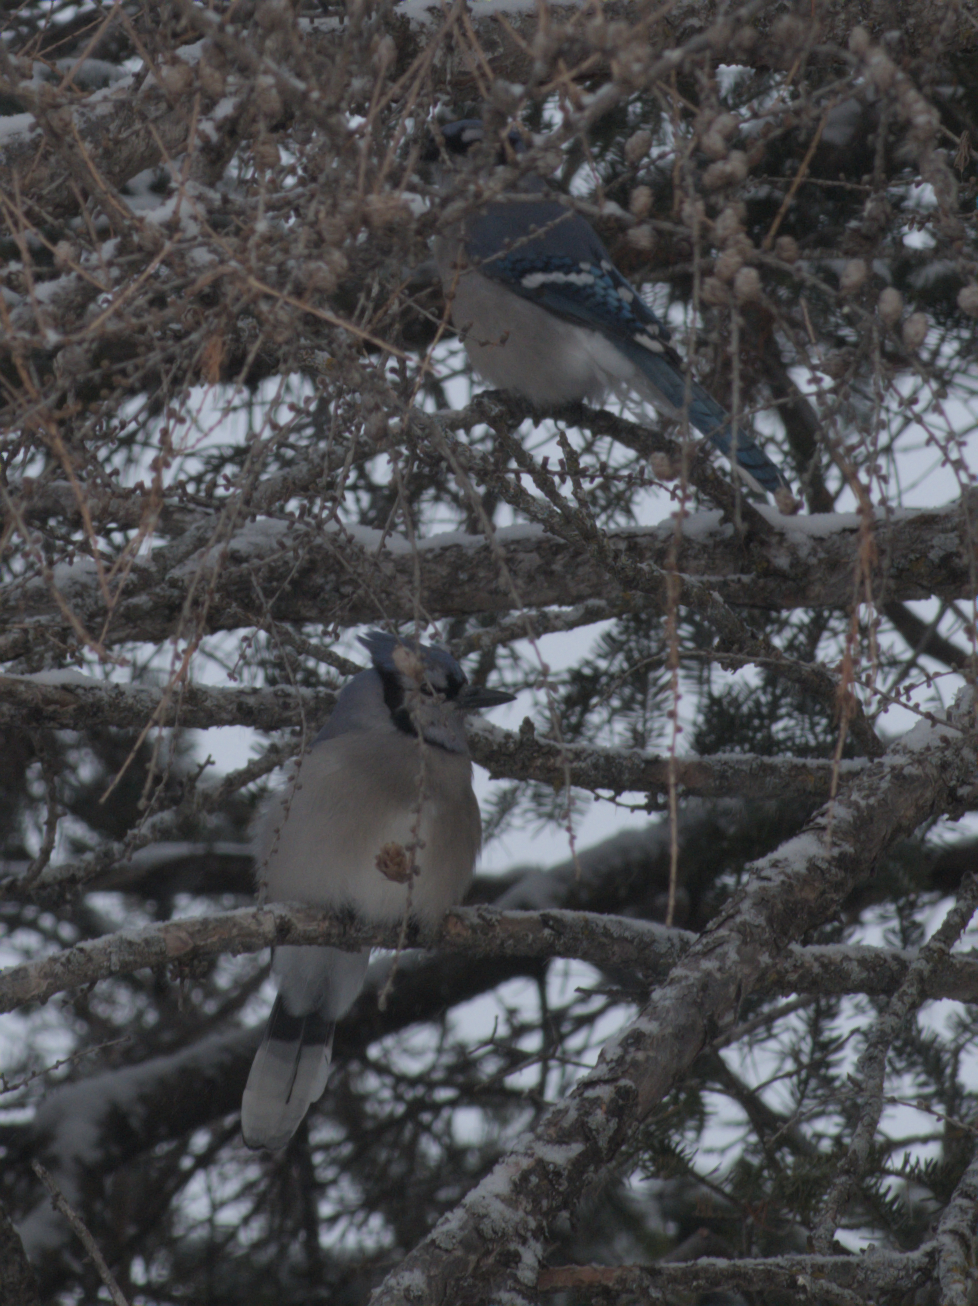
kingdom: Animalia
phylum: Chordata
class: Aves
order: Passeriformes
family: Corvidae
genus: Cyanocitta
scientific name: Cyanocitta cristata
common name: Blue jay
